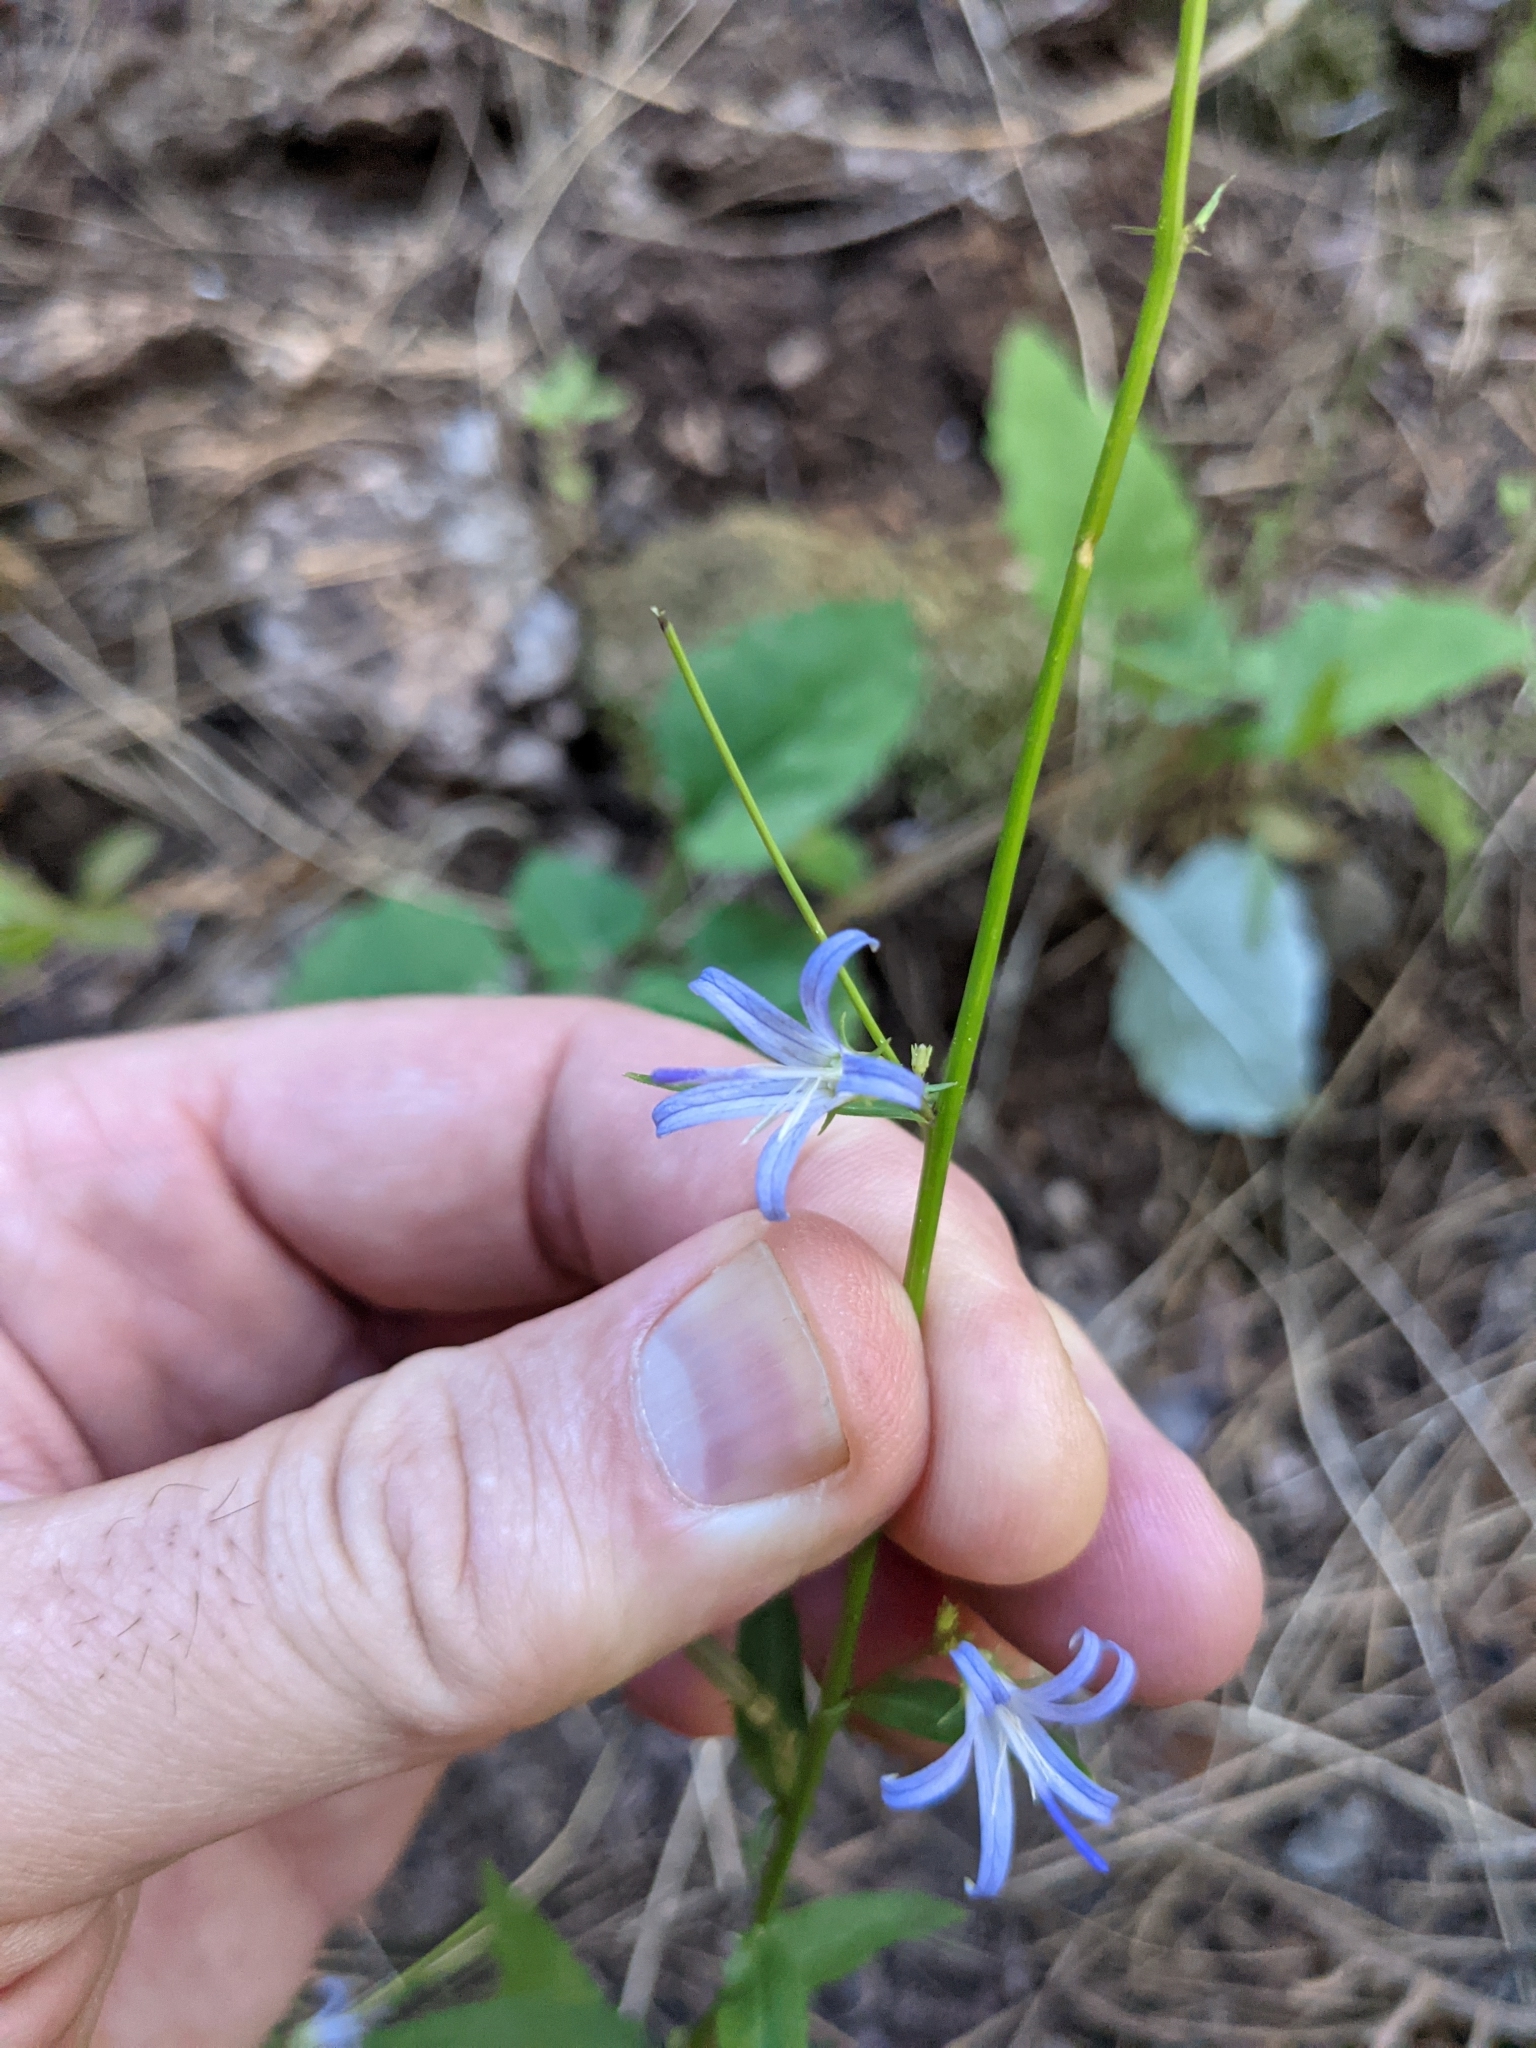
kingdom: Plantae
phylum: Tracheophyta
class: Magnoliopsida
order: Asterales
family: Campanulaceae
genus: Smithiastrum
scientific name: Smithiastrum prenanthoides
